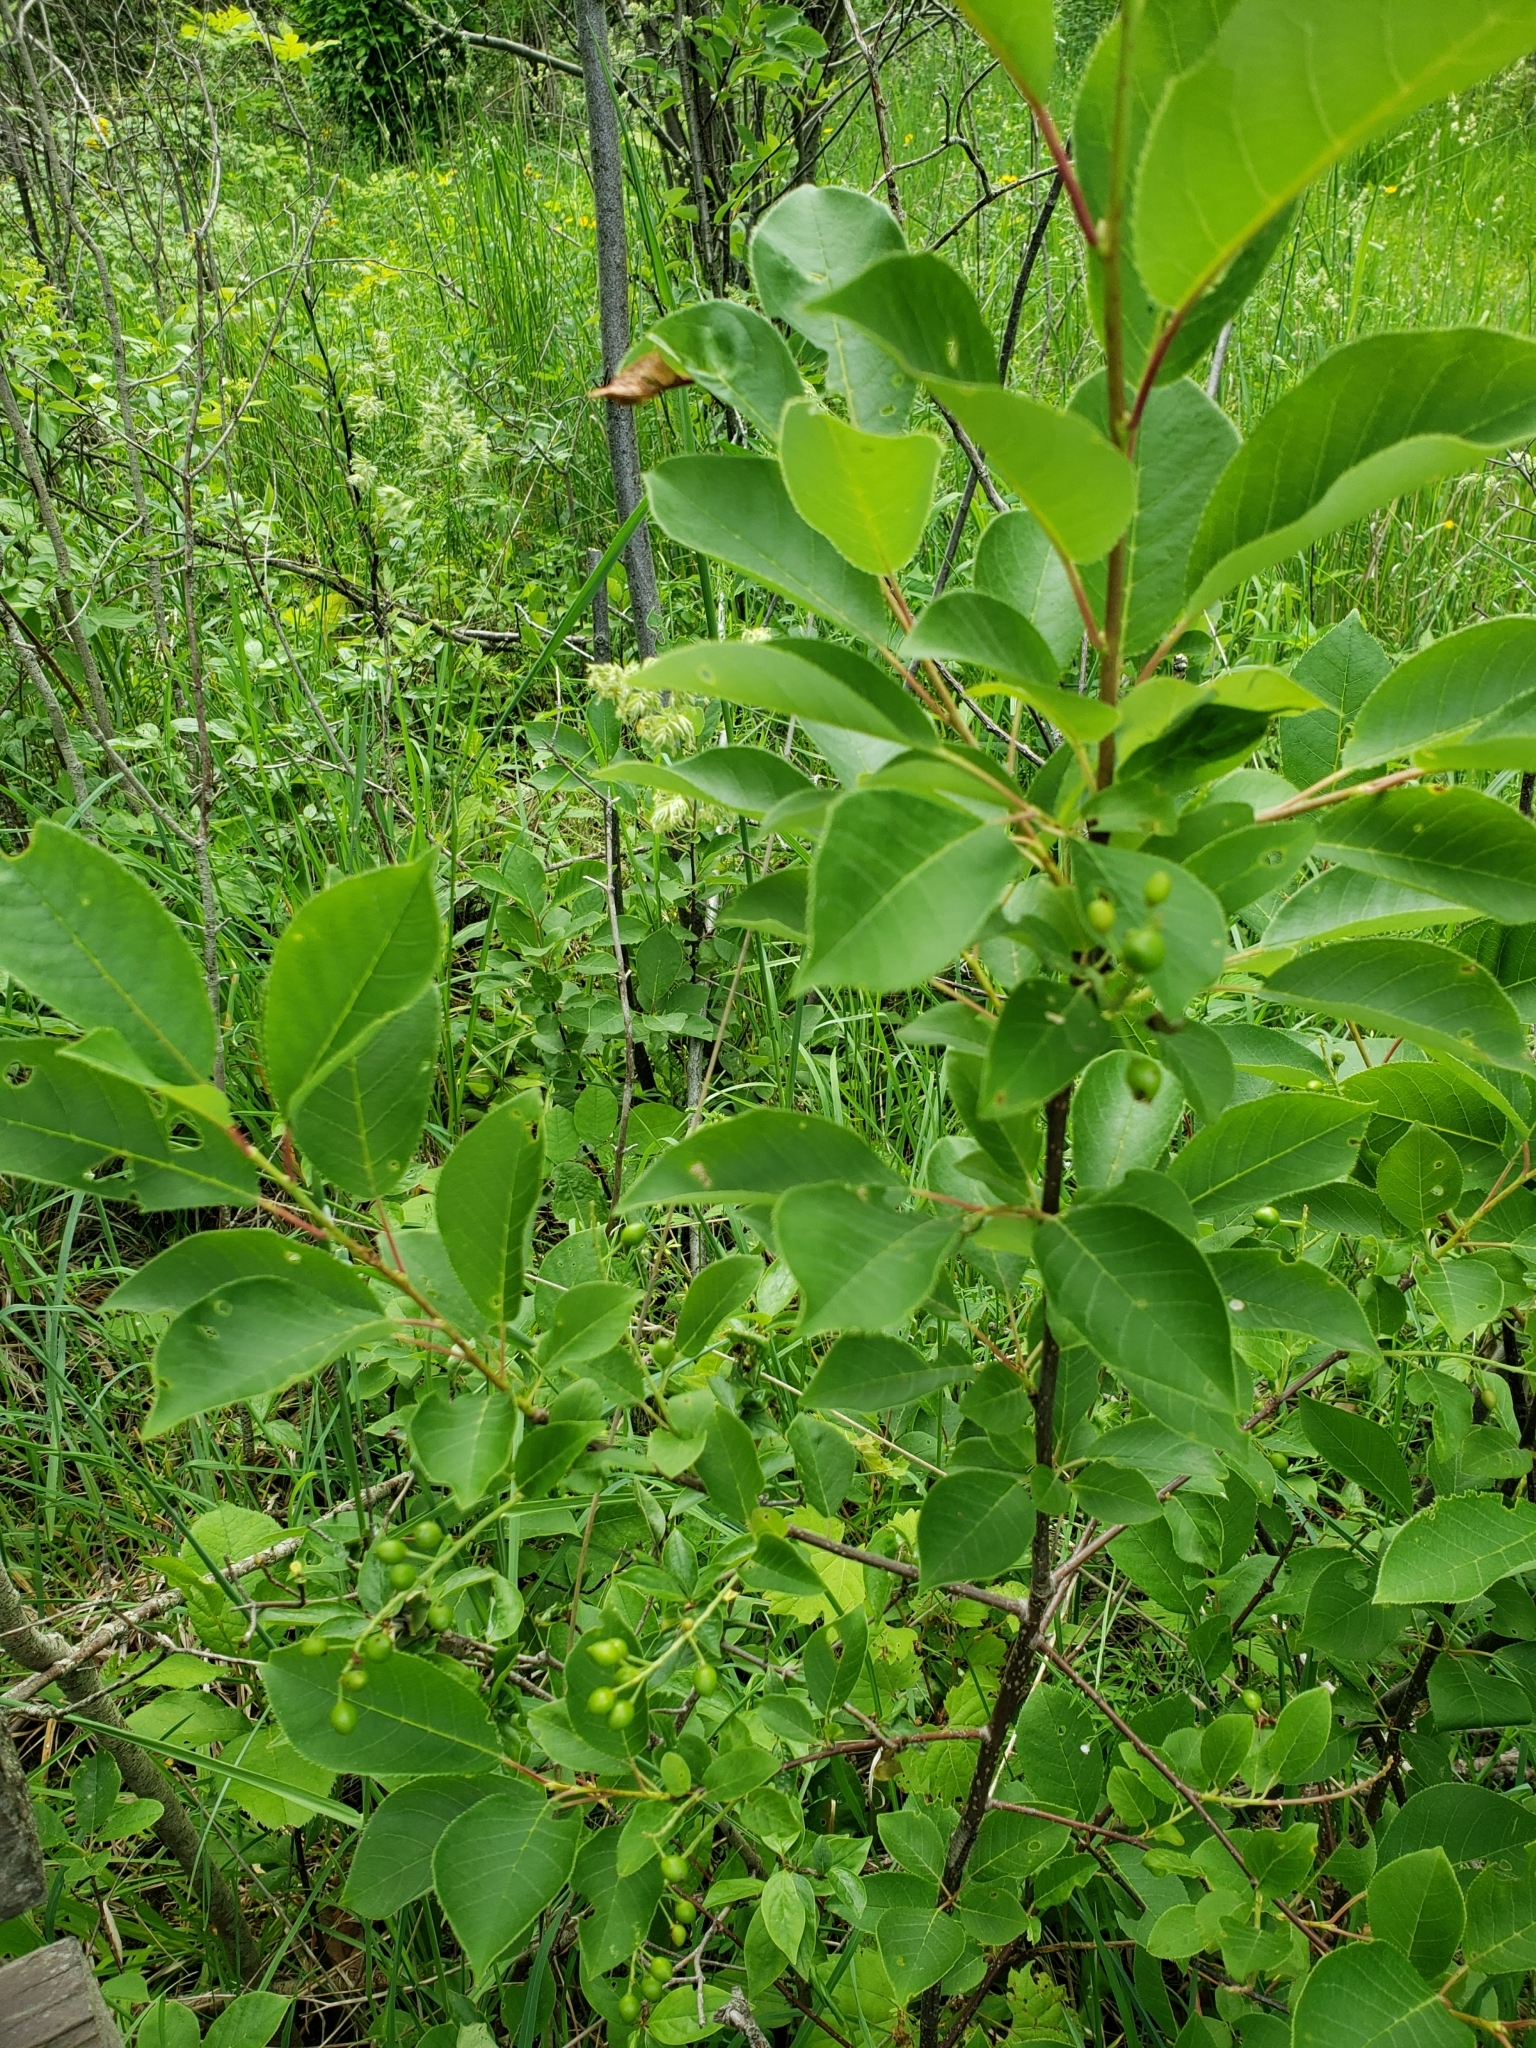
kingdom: Plantae
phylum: Tracheophyta
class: Magnoliopsida
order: Rosales
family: Rosaceae
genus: Prunus
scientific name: Prunus virginiana
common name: Chokecherry
